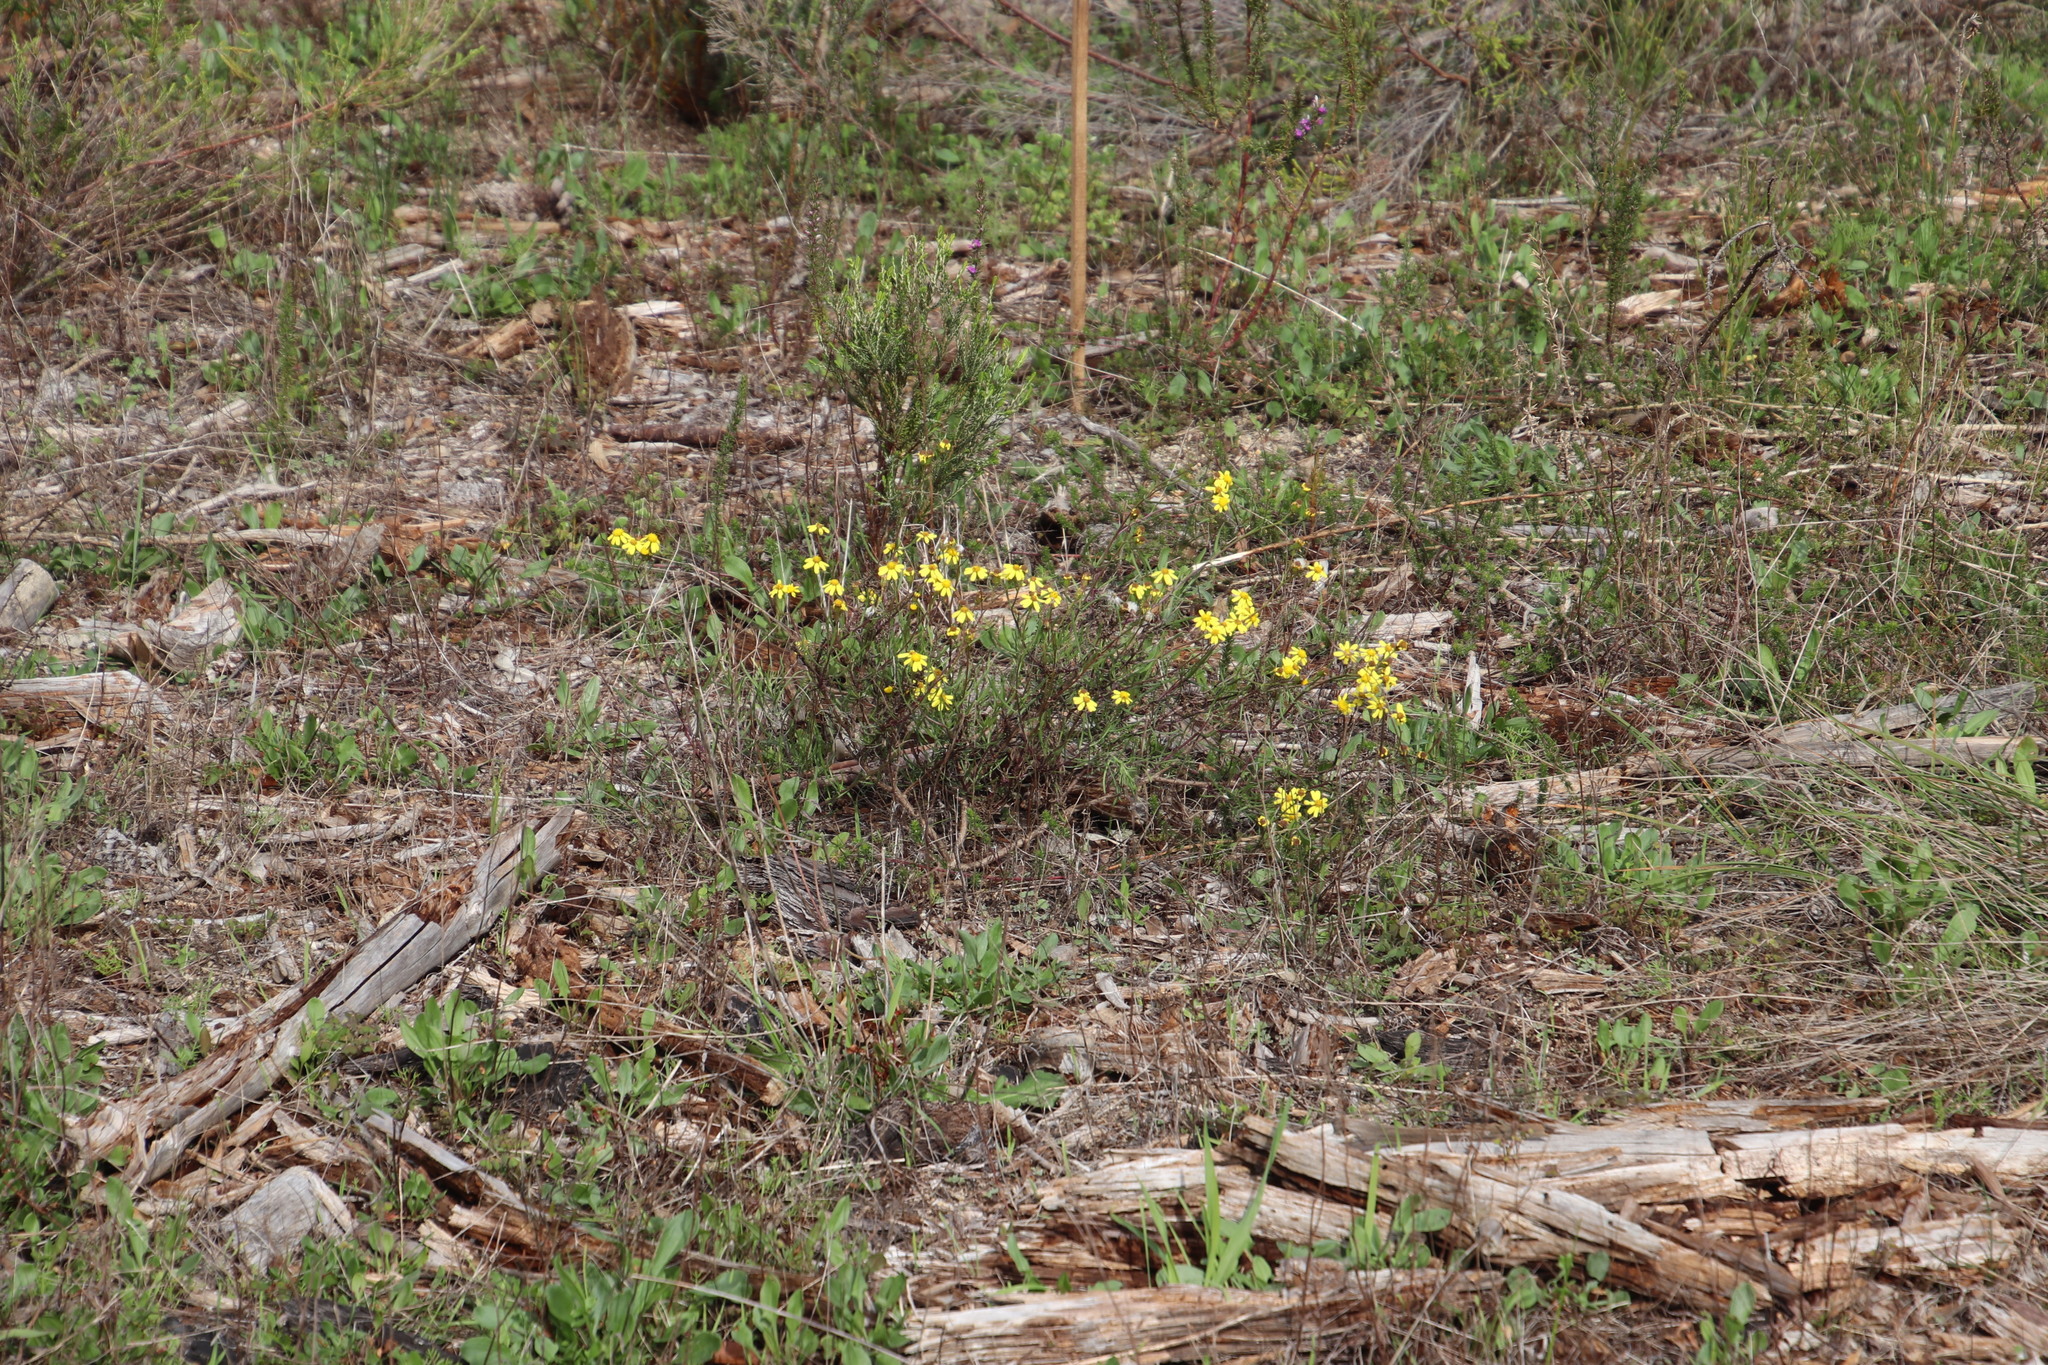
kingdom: Plantae
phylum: Tracheophyta
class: Magnoliopsida
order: Asterales
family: Asteraceae
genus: Senecio
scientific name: Senecio burchellii
